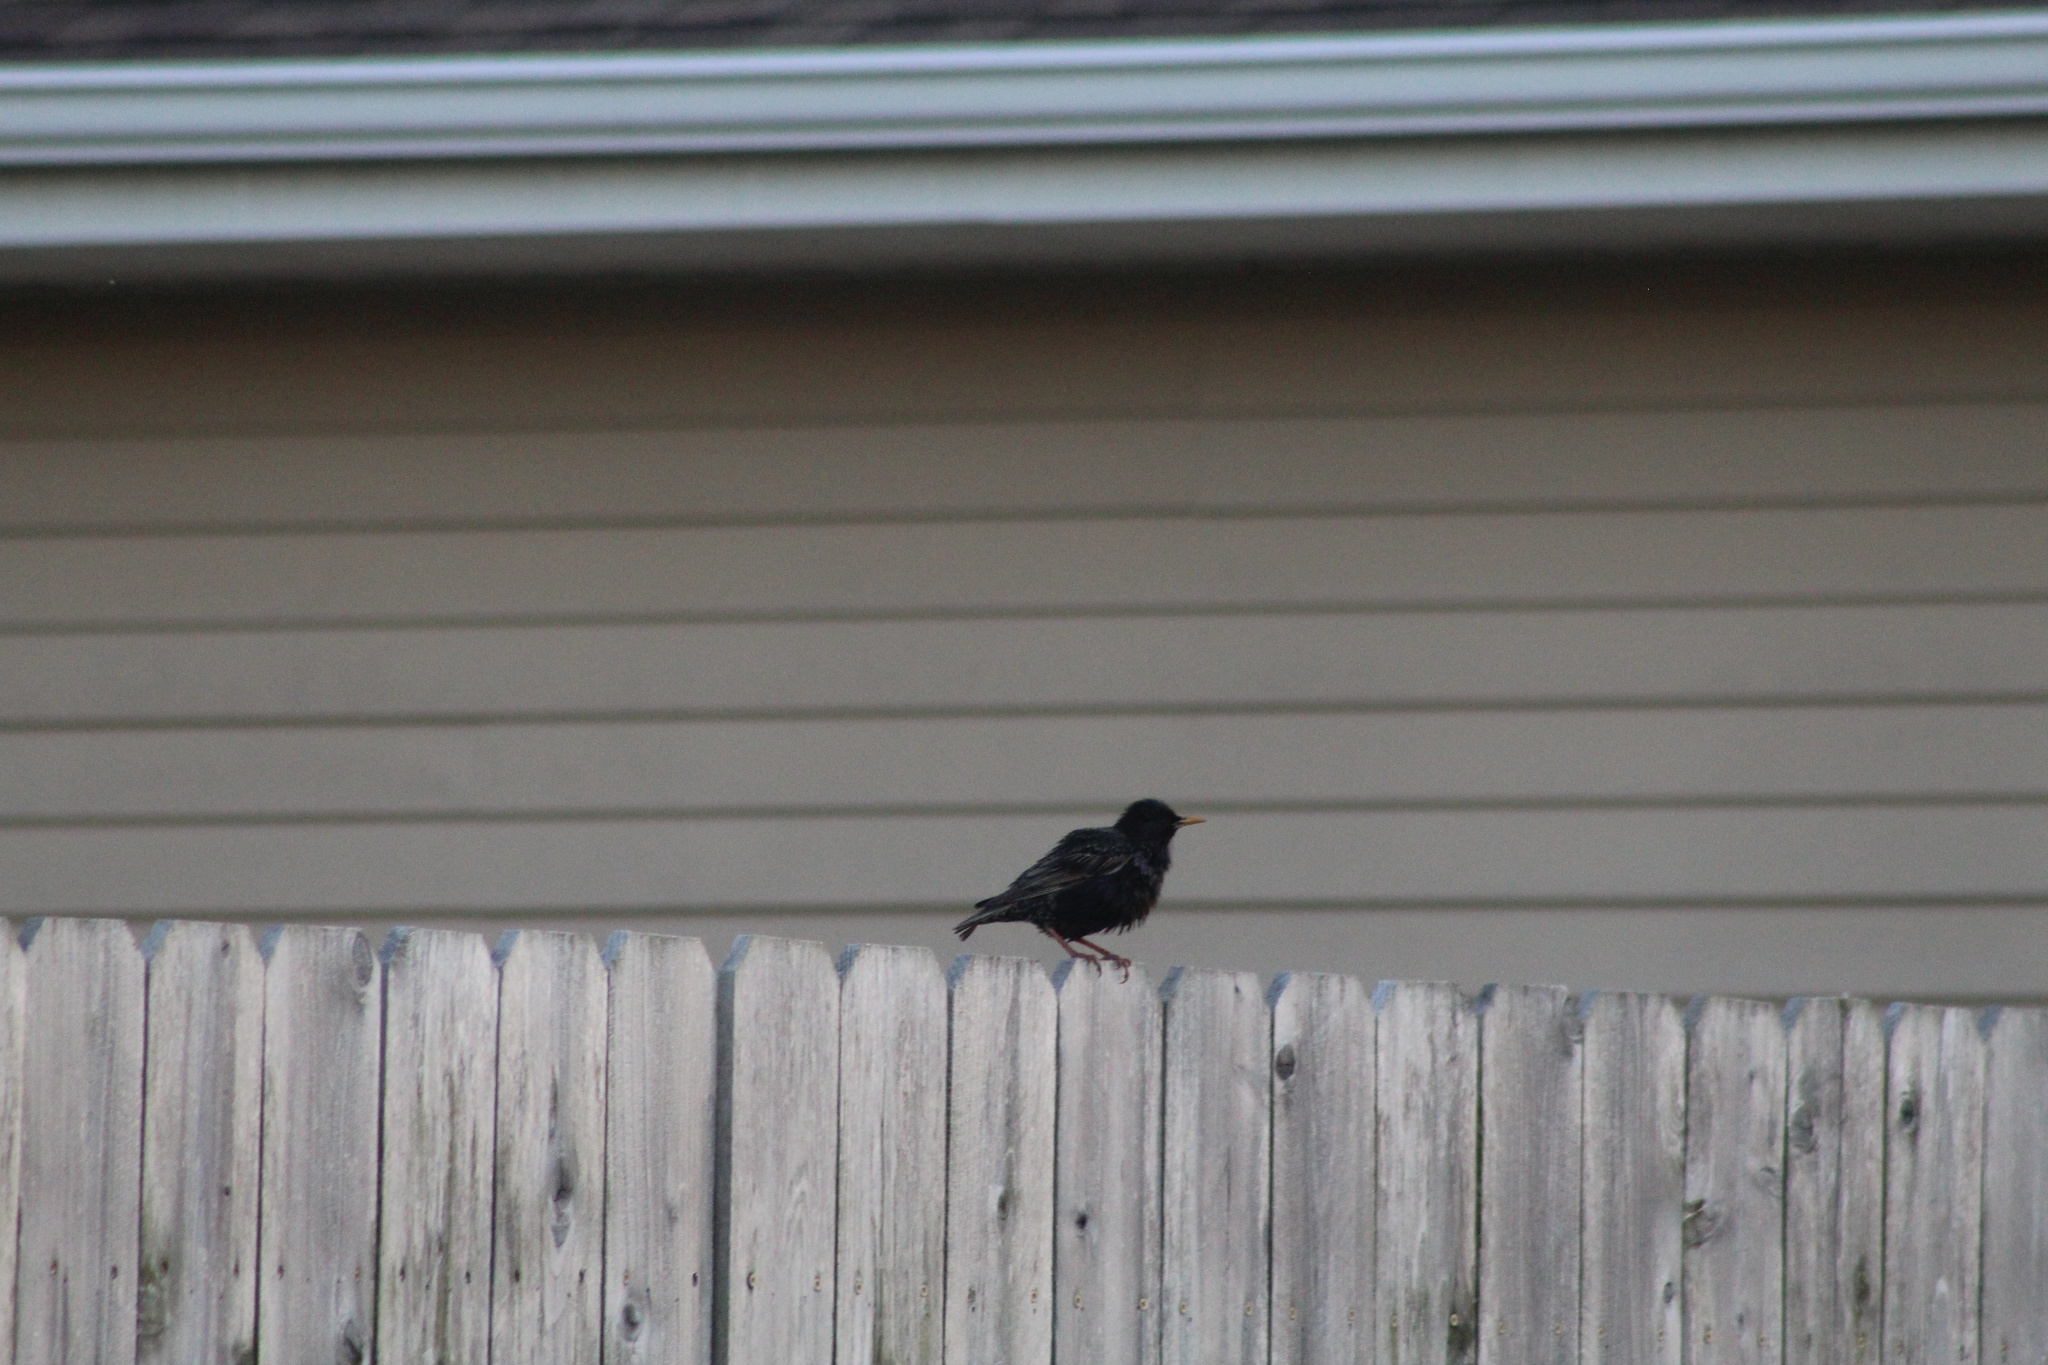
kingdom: Animalia
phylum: Chordata
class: Aves
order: Passeriformes
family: Sturnidae
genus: Sturnus
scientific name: Sturnus vulgaris
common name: Common starling
